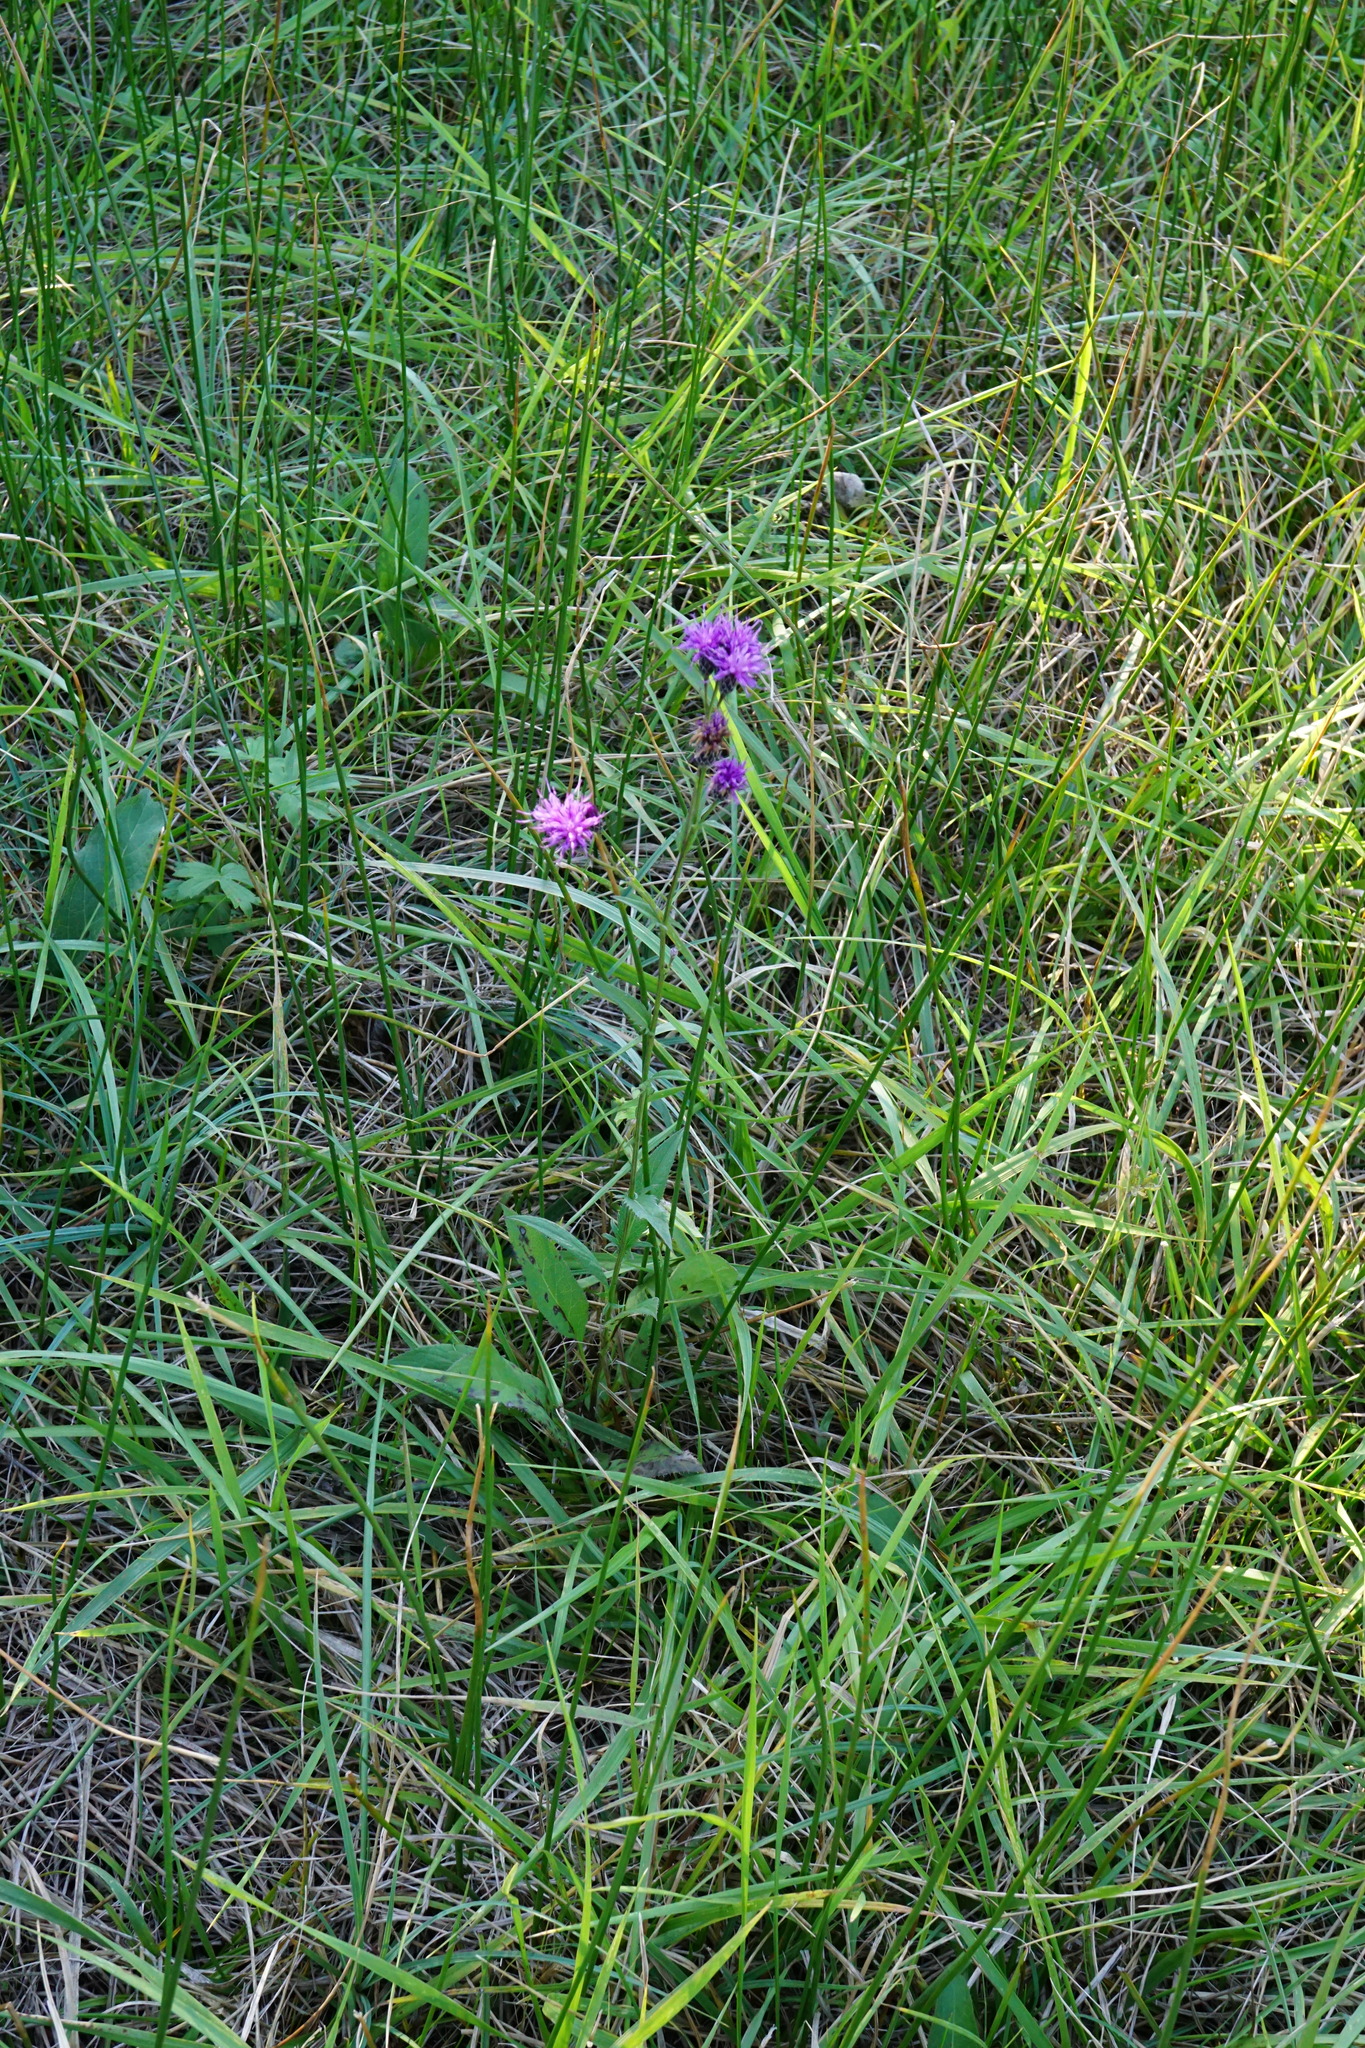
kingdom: Plantae
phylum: Tracheophyta
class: Magnoliopsida
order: Asterales
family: Asteraceae
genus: Serratula
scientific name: Serratula tinctoria
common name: Saw-wort
